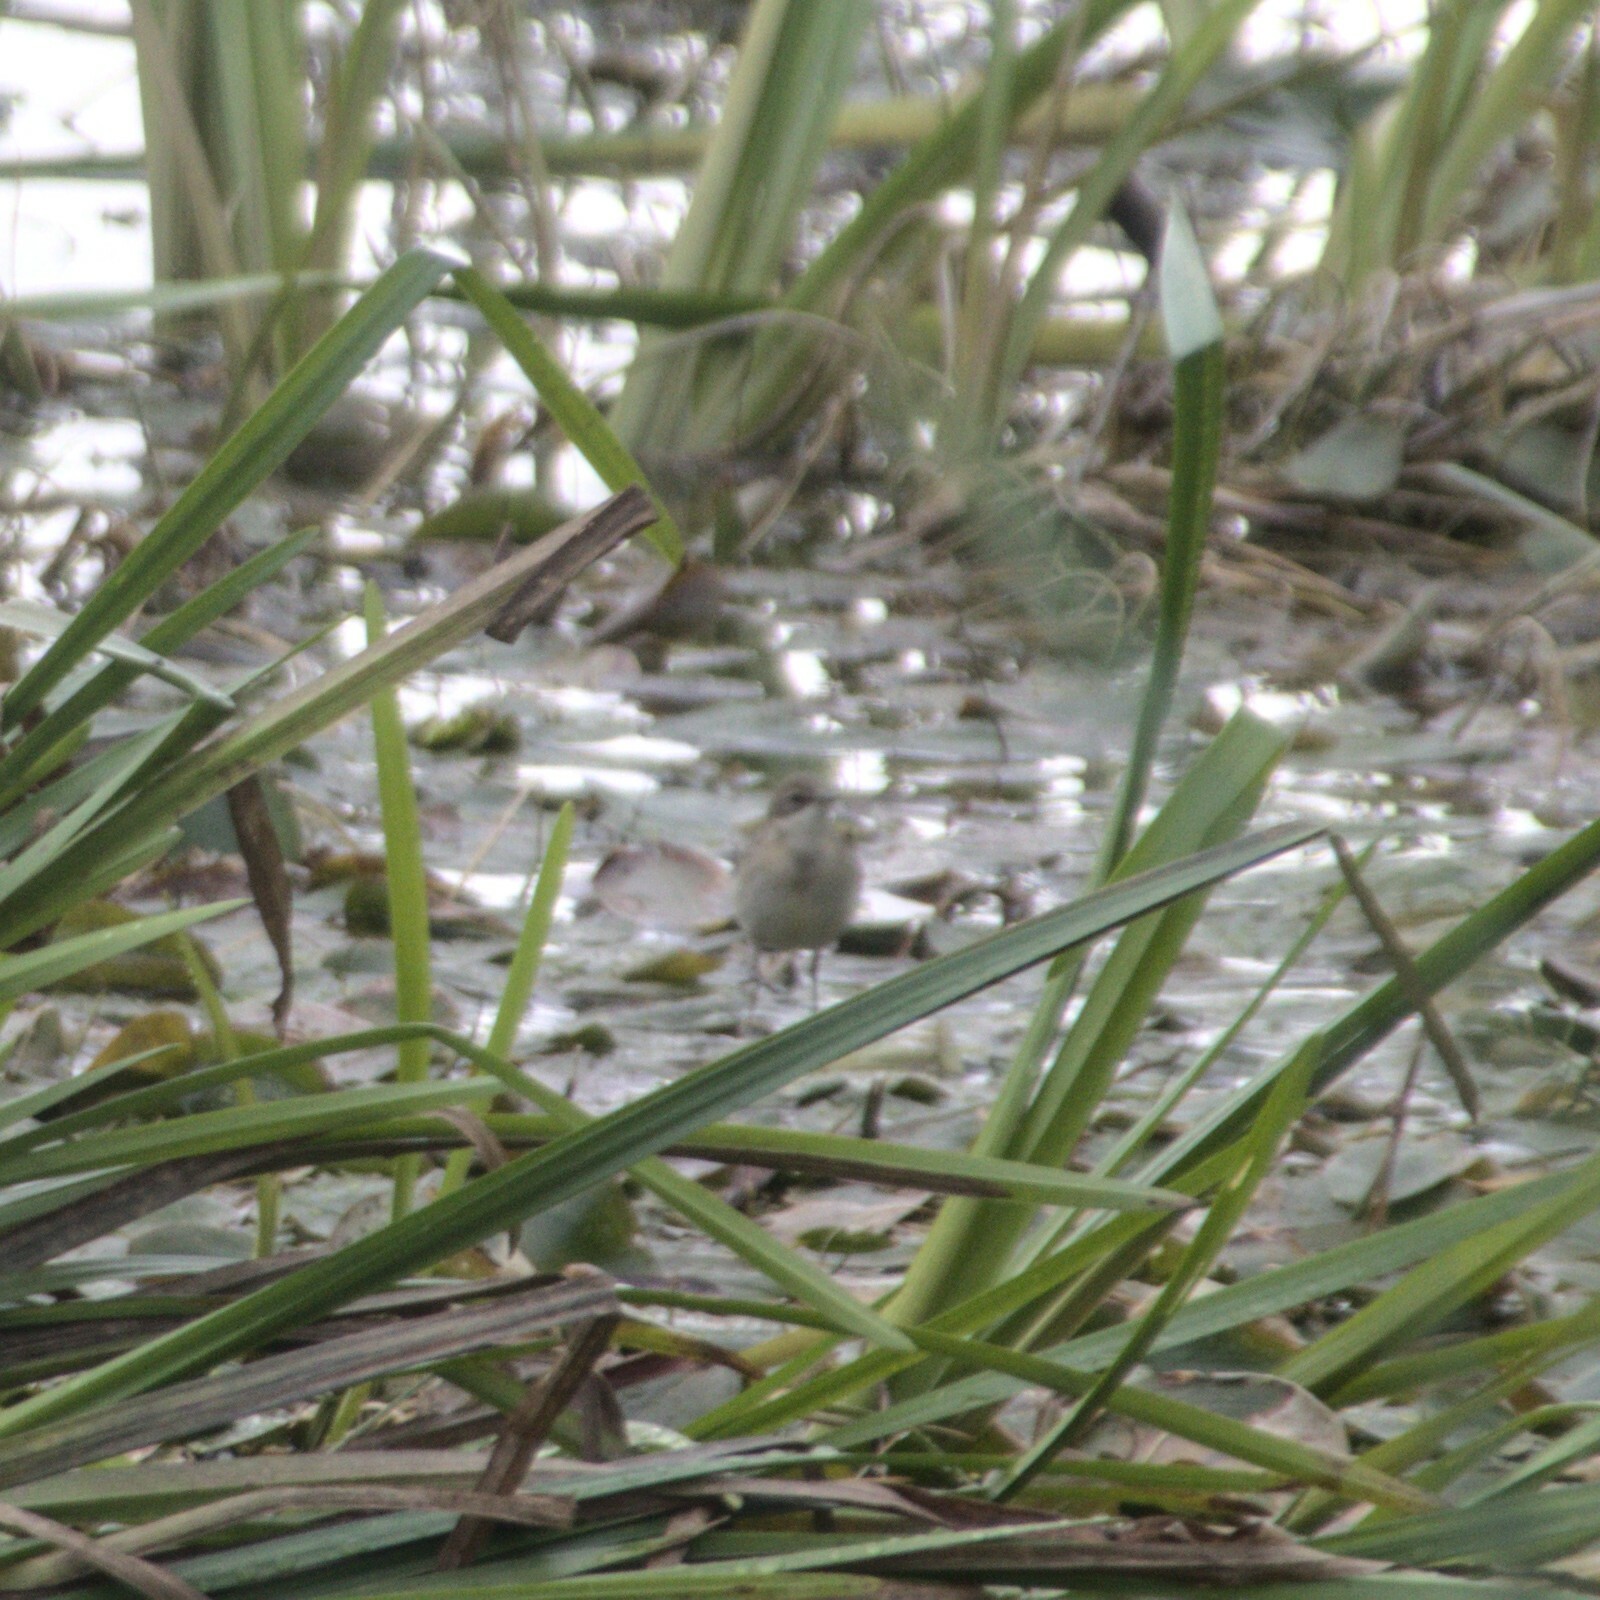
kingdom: Animalia
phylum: Chordata
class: Aves
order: Passeriformes
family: Motacillidae
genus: Motacilla
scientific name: Motacilla flava
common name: Western yellow wagtail
